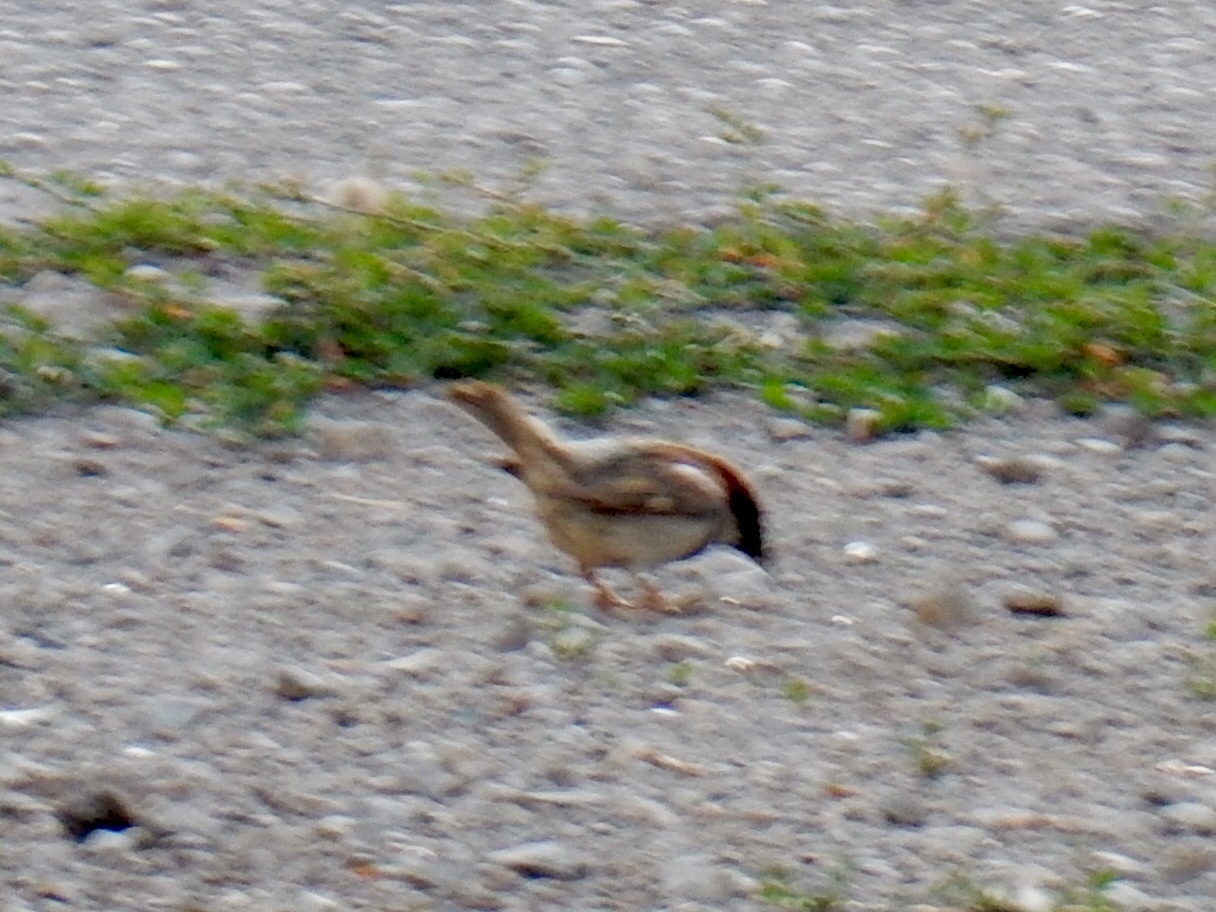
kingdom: Animalia
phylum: Chordata
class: Aves
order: Passeriformes
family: Passeridae
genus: Passer
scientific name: Passer domesticus
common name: House sparrow
